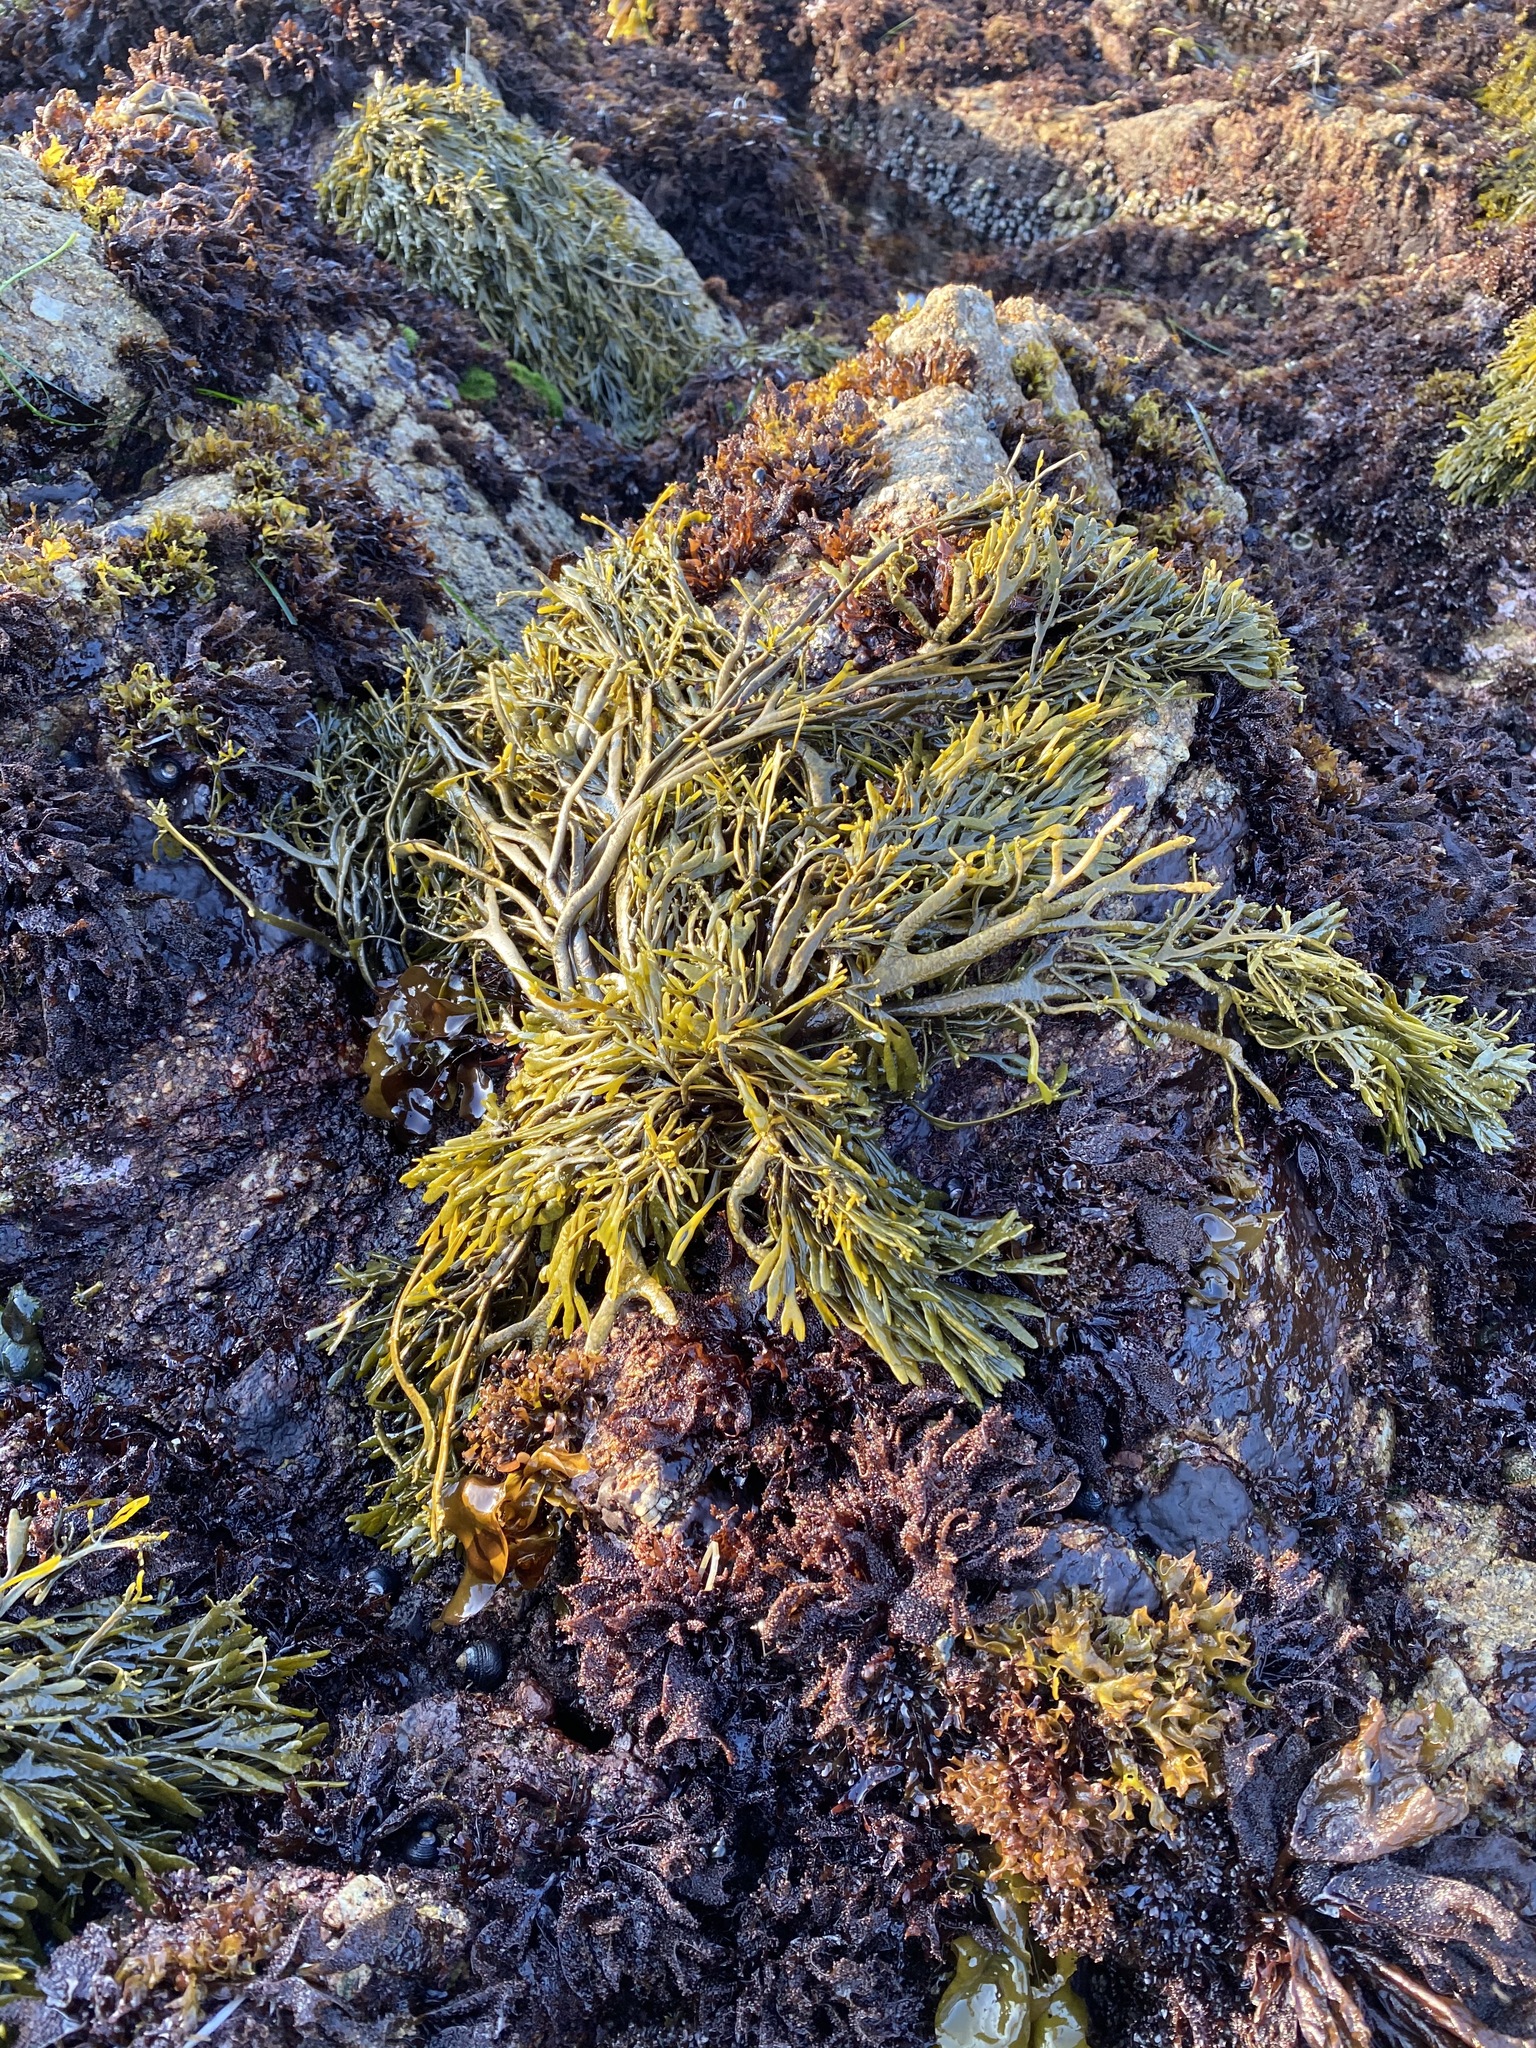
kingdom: Chromista
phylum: Ochrophyta
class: Phaeophyceae
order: Fucales
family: Fucaceae
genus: Silvetia
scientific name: Silvetia
